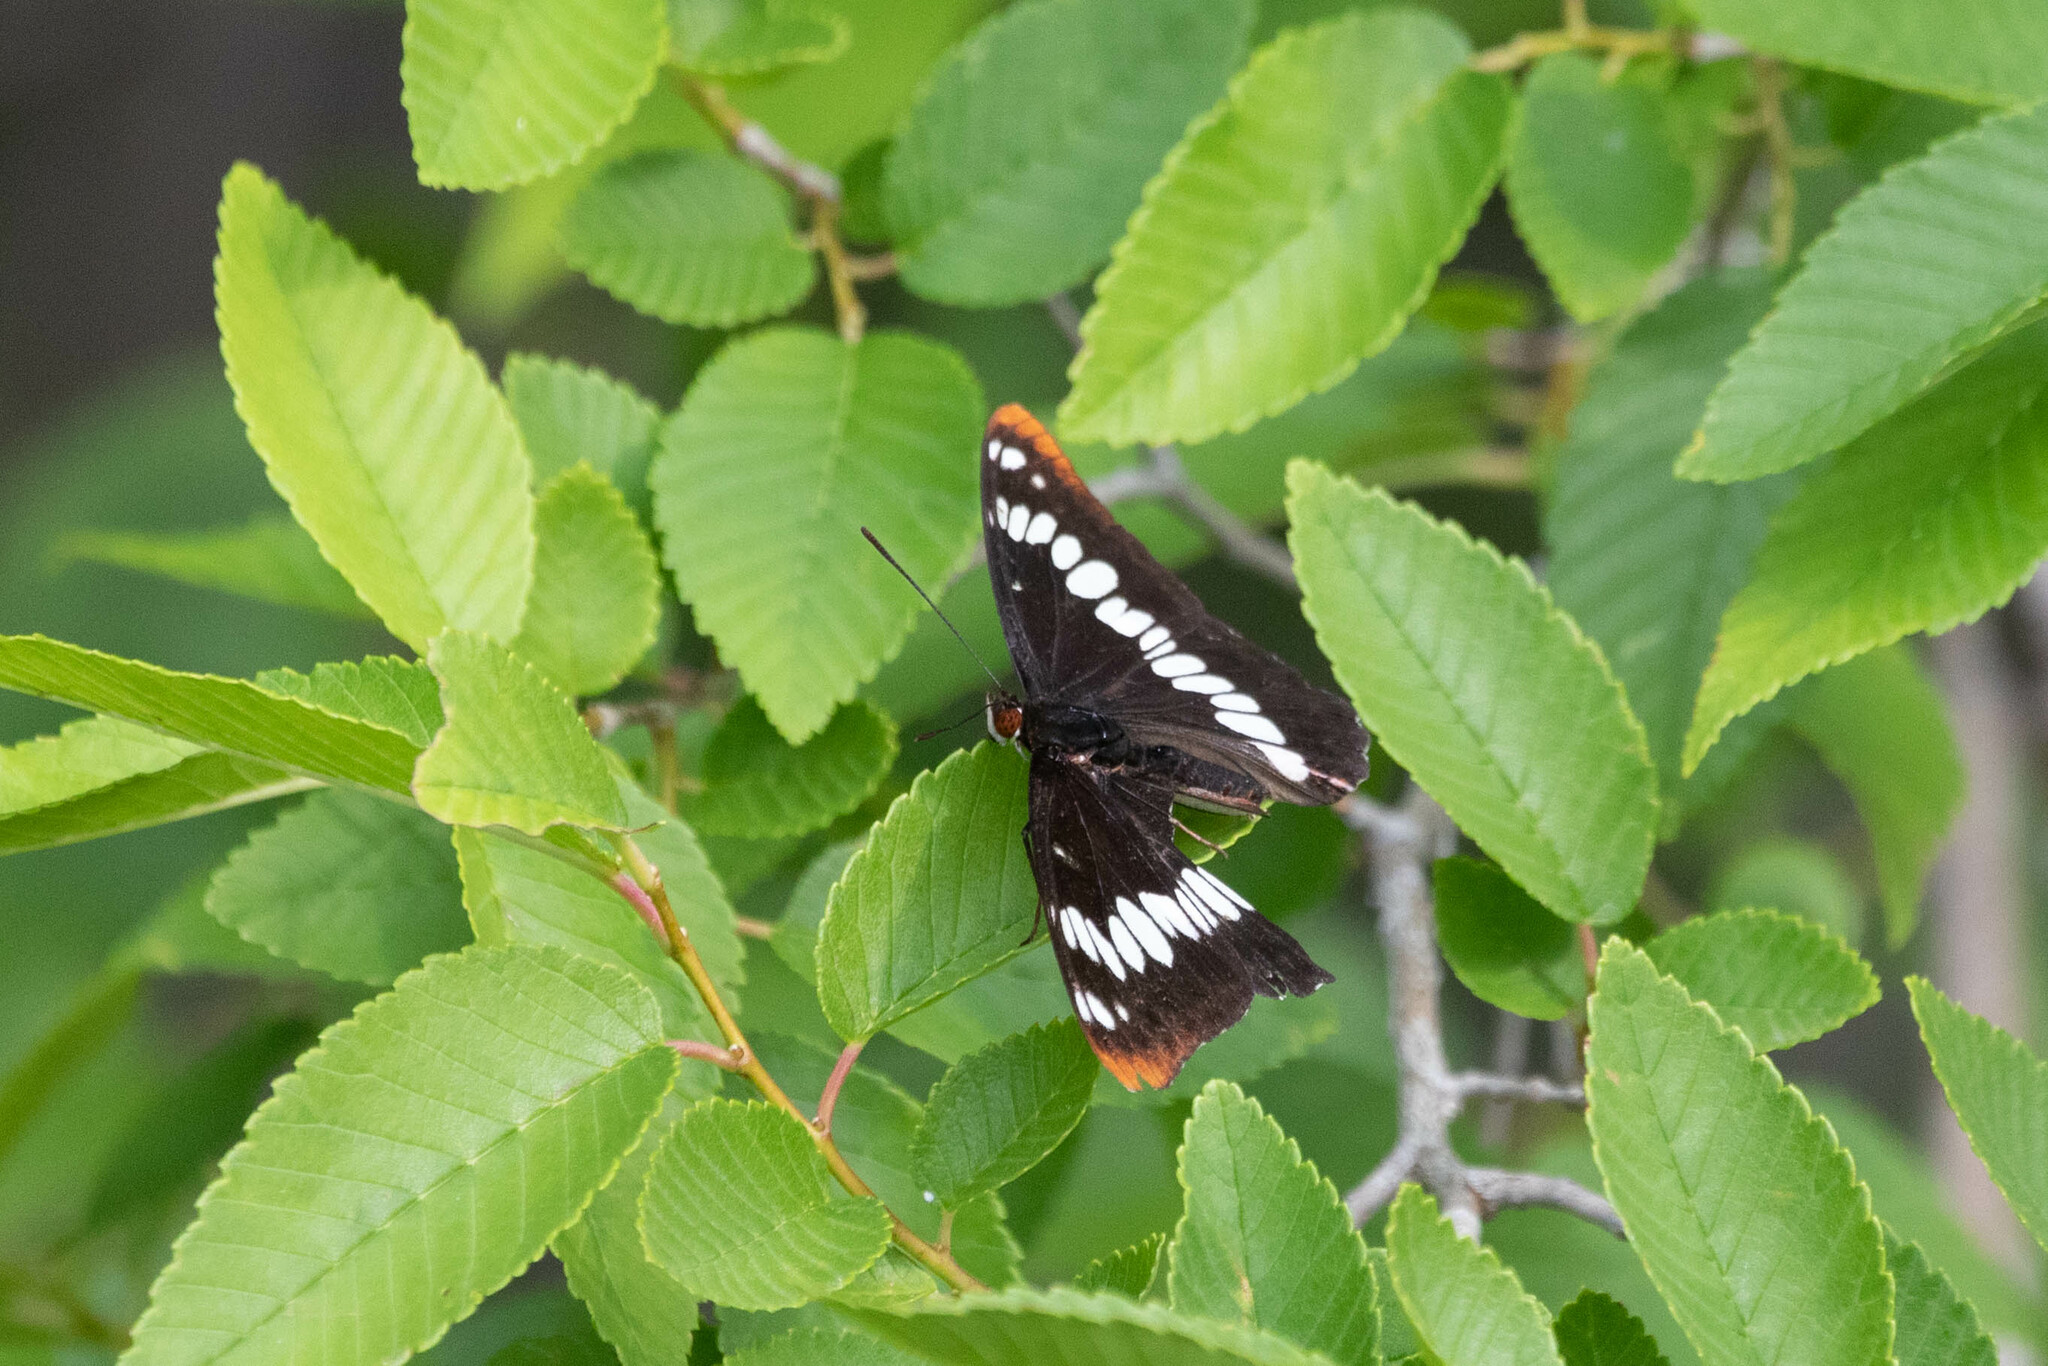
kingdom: Animalia
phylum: Arthropoda
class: Insecta
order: Lepidoptera
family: Nymphalidae
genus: Limenitis
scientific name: Limenitis lorquini
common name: Lorquin's admiral
